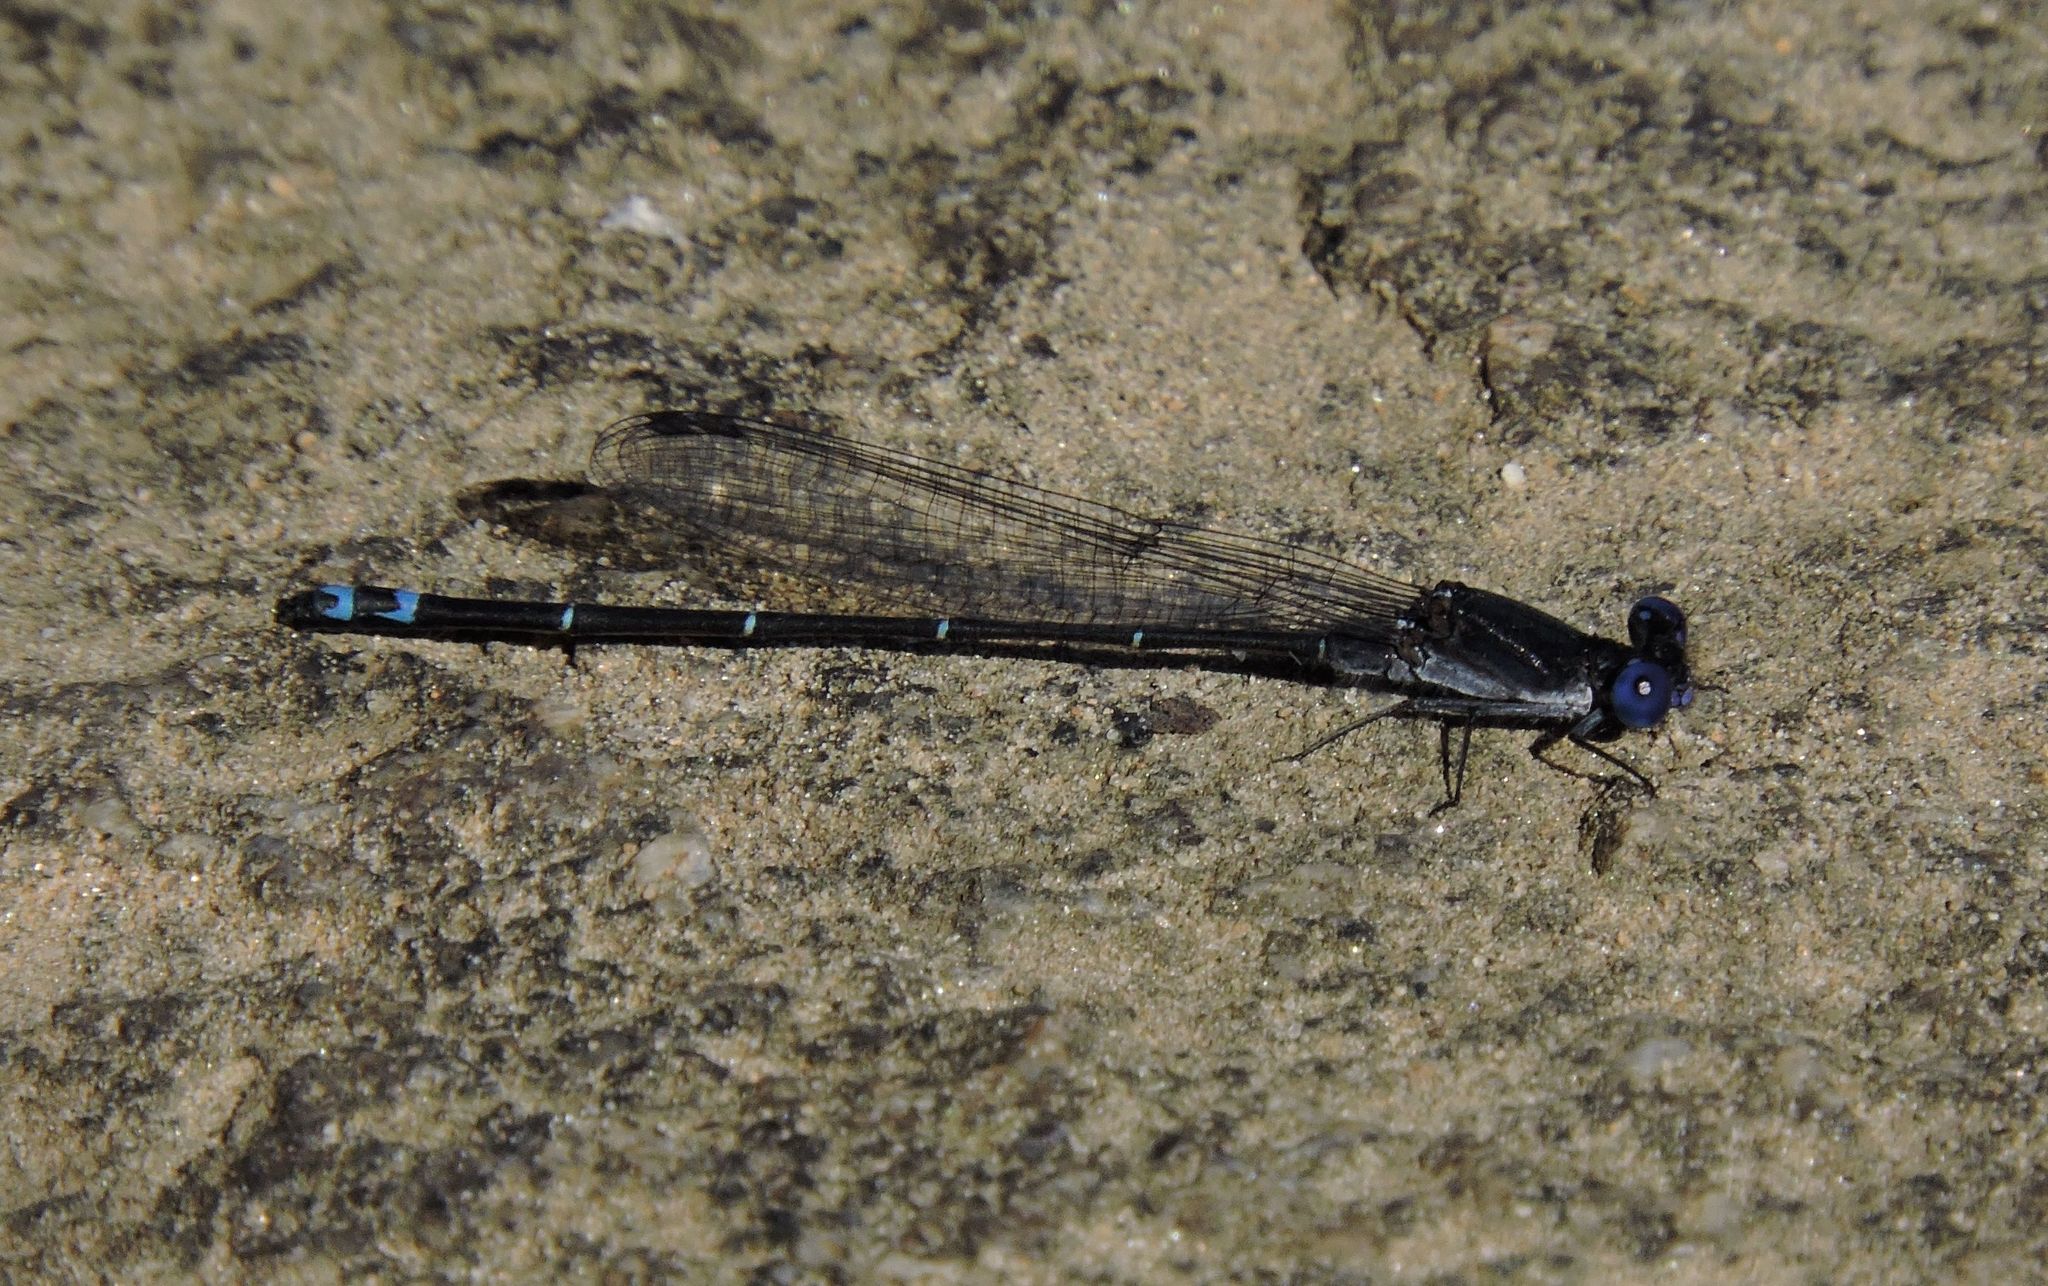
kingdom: Animalia
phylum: Arthropoda
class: Insecta
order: Odonata
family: Coenagrionidae
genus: Argia
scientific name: Argia translata
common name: Dusky dancer
